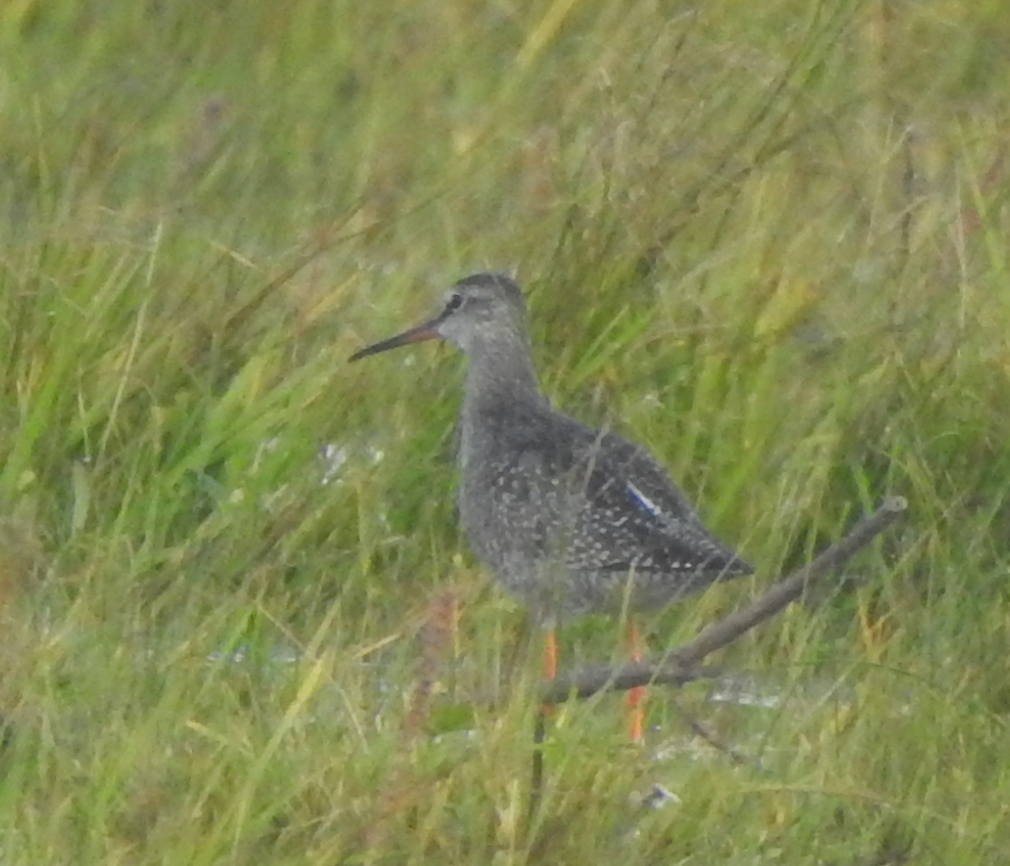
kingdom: Animalia
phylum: Chordata
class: Aves
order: Charadriiformes
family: Scolopacidae
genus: Tringa
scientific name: Tringa erythropus
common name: Spotted redshank
